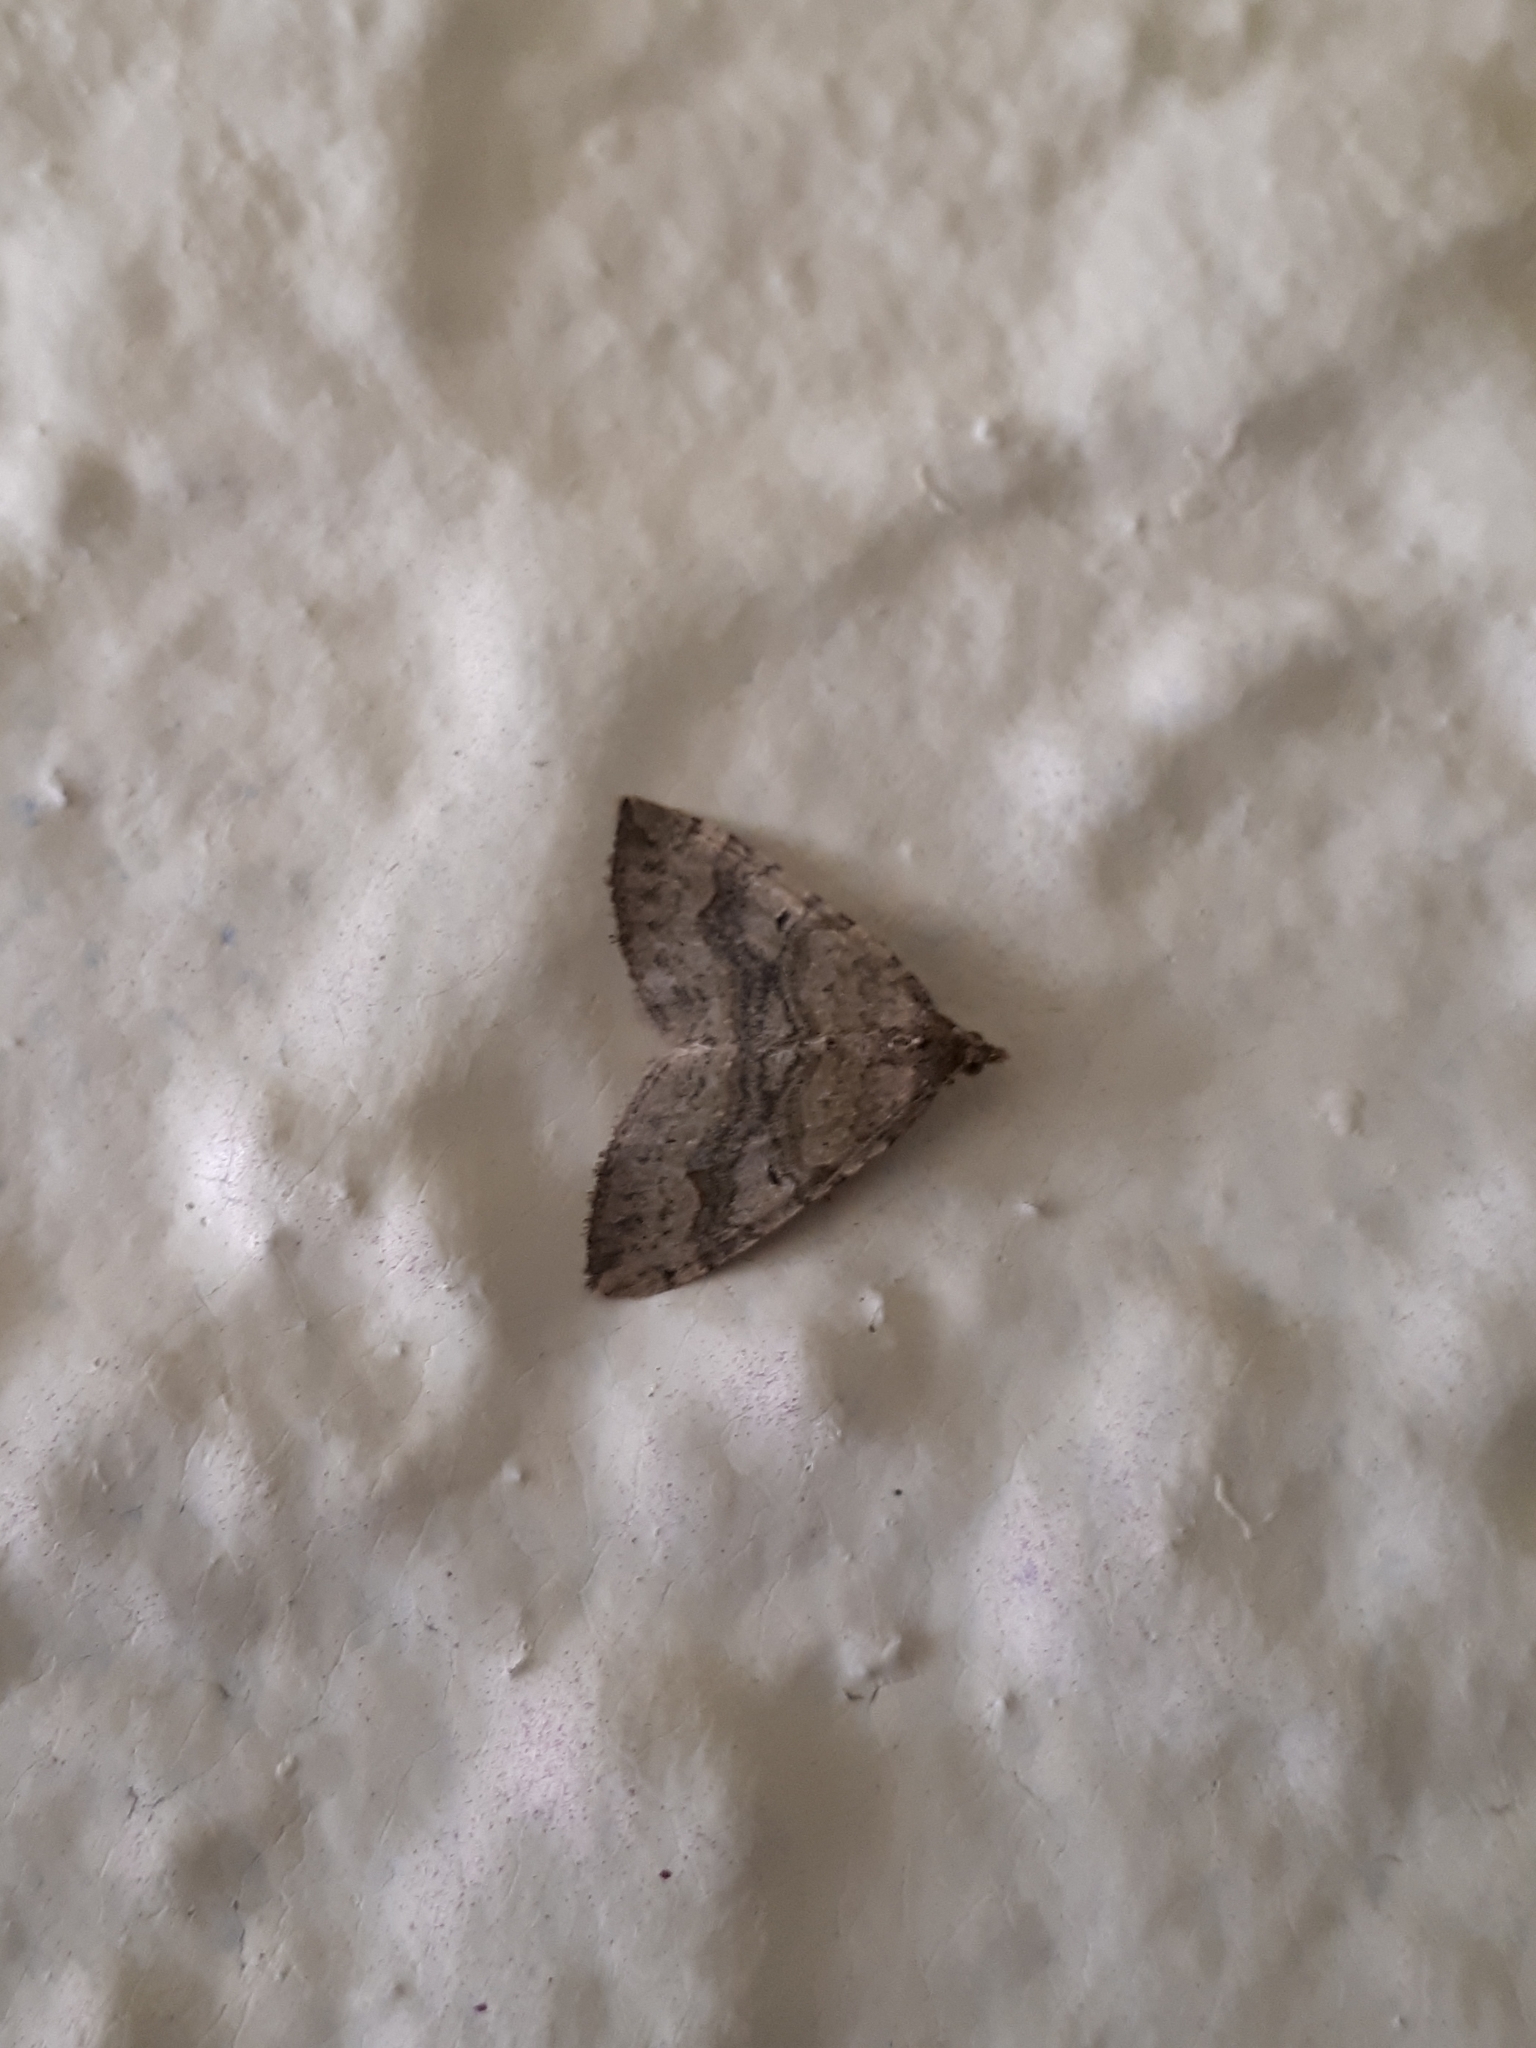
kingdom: Animalia
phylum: Arthropoda
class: Insecta
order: Lepidoptera
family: Geometridae
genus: Epyaxa
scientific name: Epyaxa rosearia
